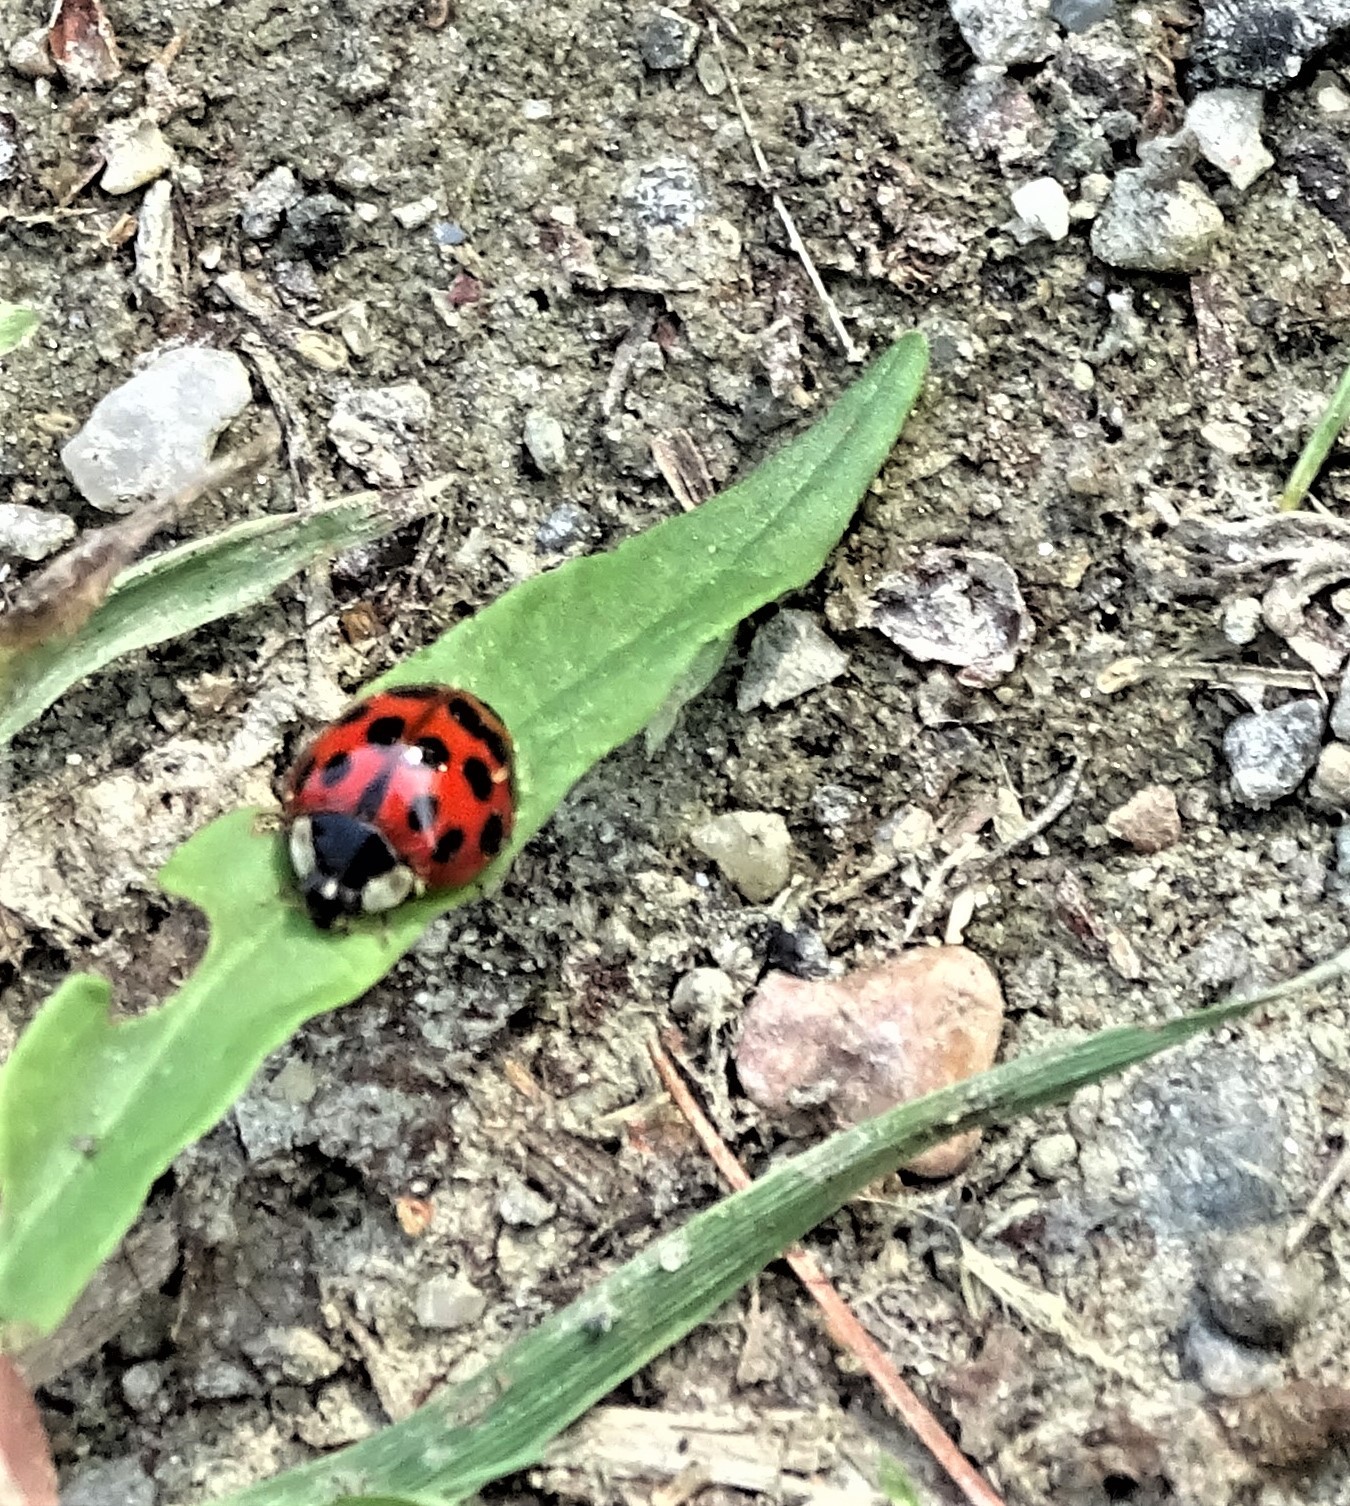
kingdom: Animalia
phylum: Arthropoda
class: Insecta
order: Coleoptera
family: Coccinellidae
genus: Harmonia
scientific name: Harmonia axyridis
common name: Harlequin ladybird
